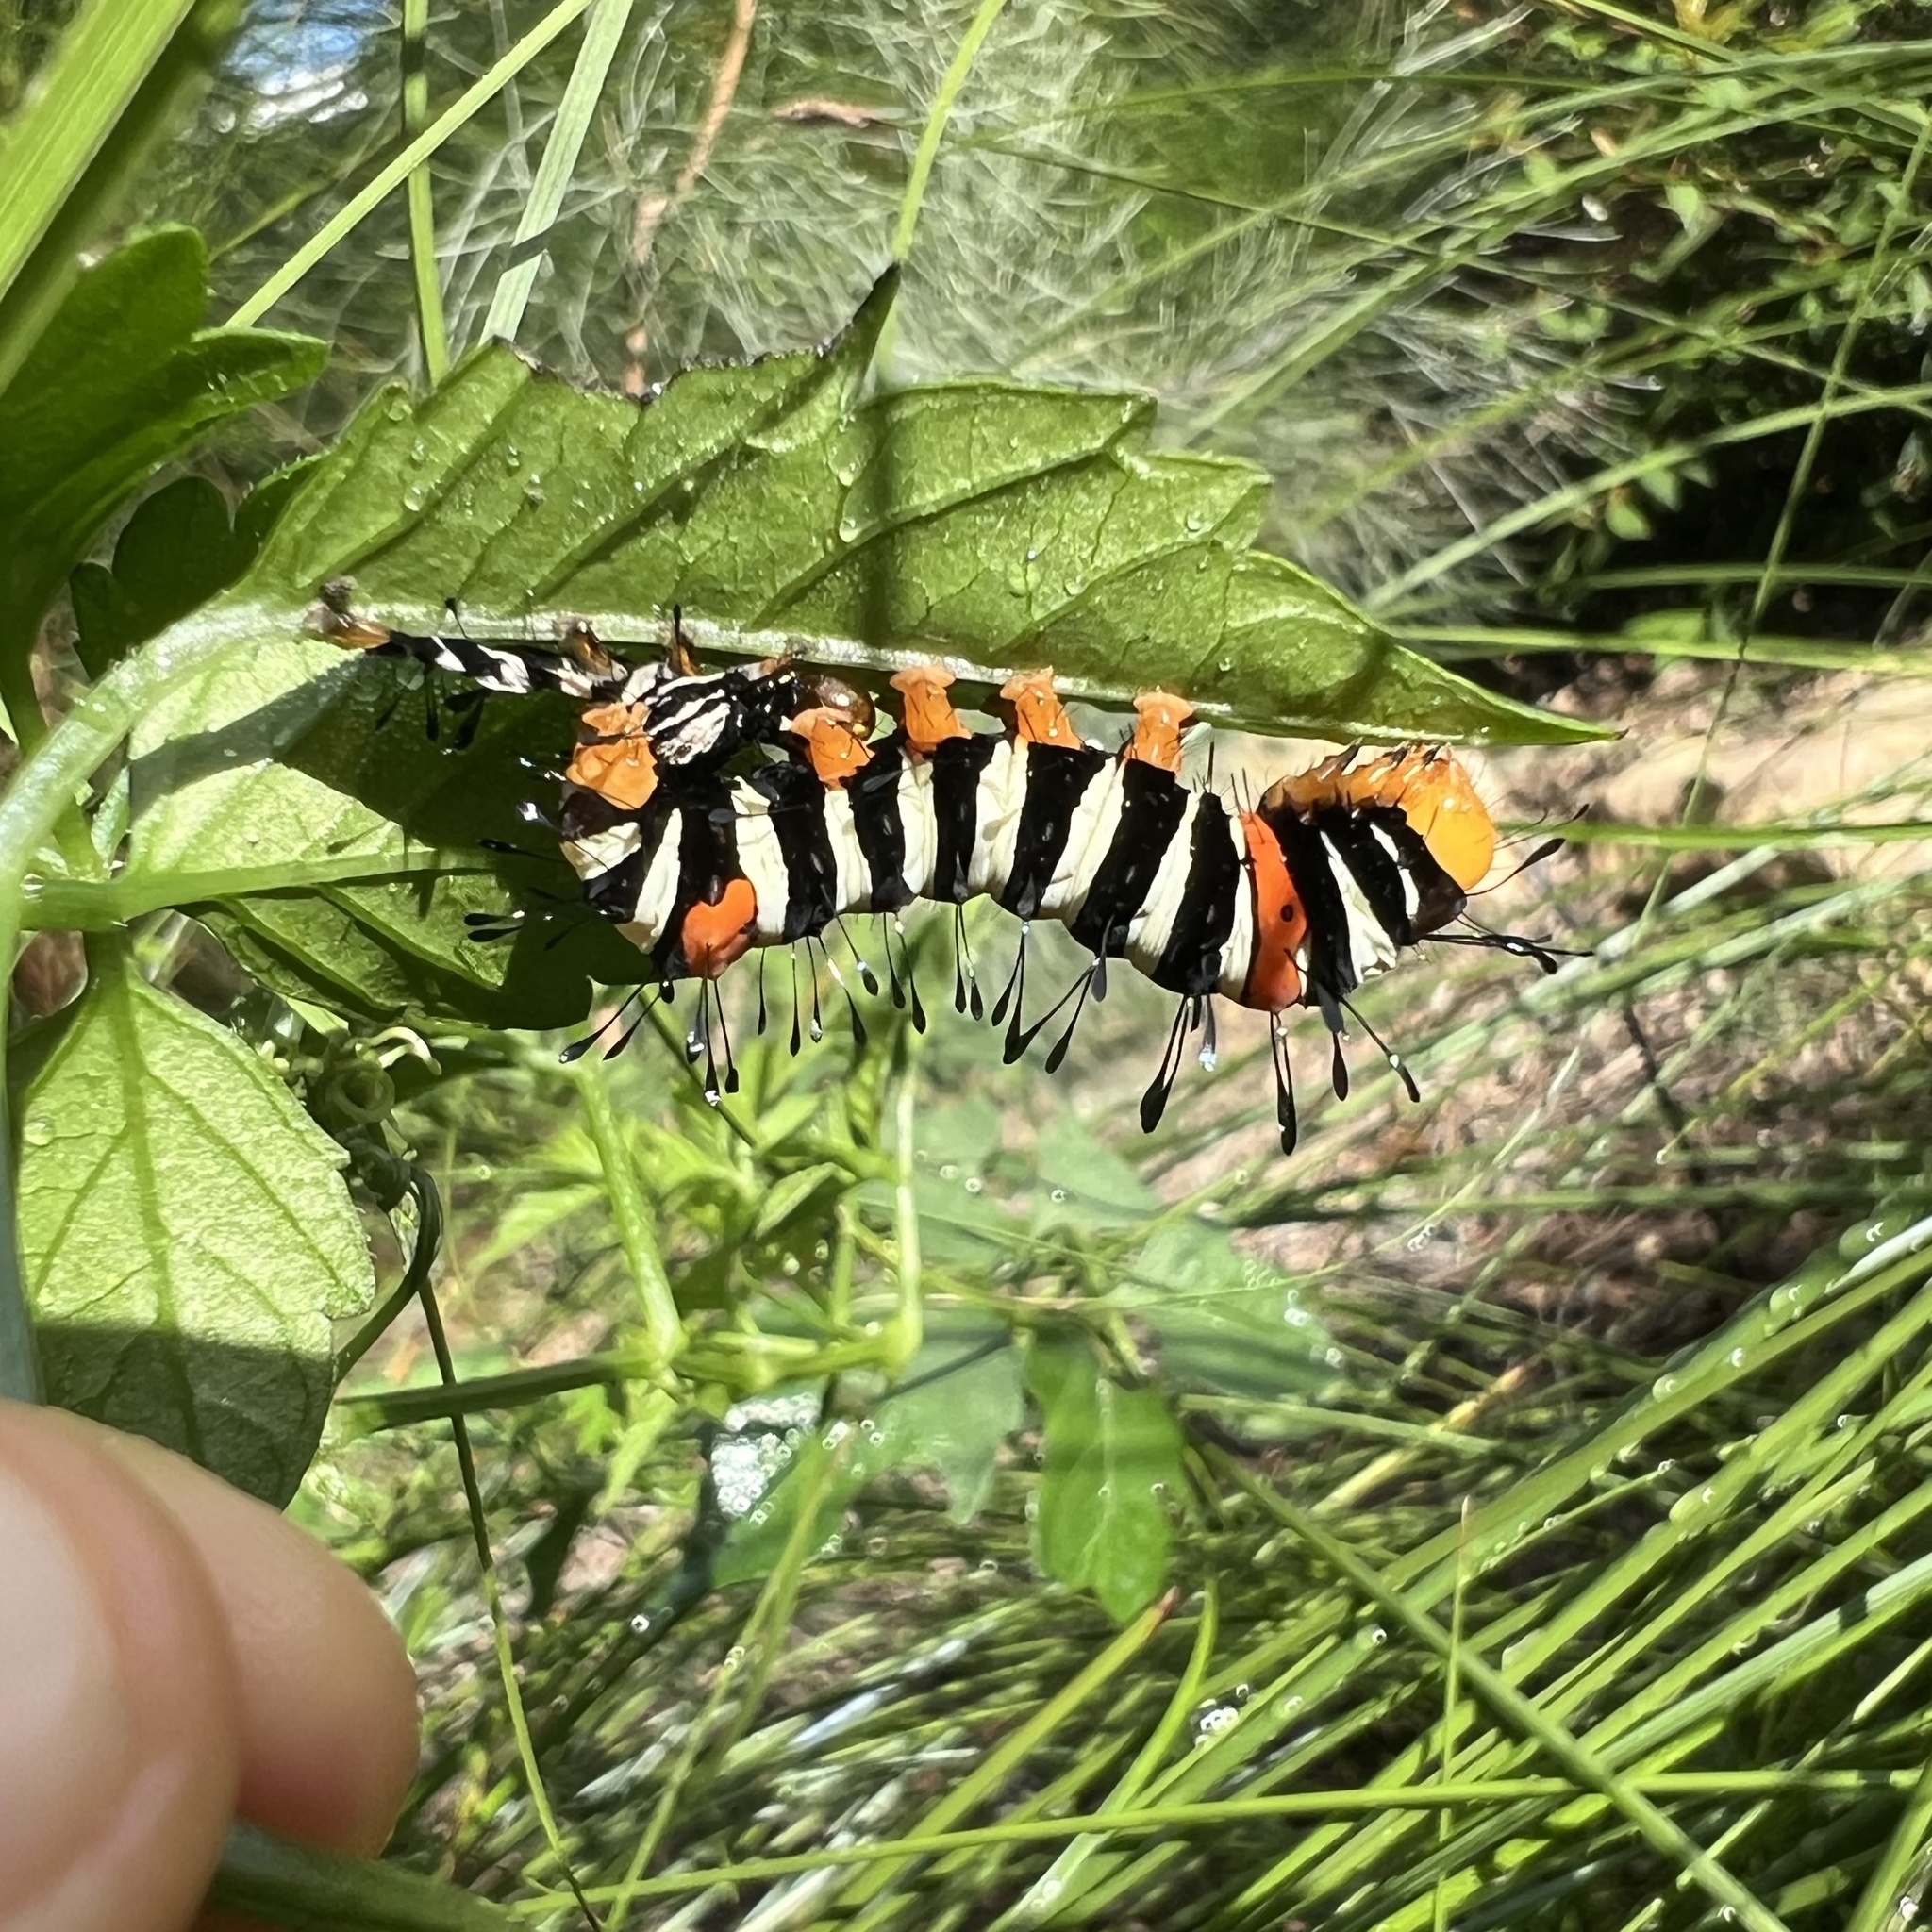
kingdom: Animalia
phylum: Arthropoda
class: Insecta
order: Lepidoptera
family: Noctuidae
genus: Agarista
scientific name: Agarista agricola
